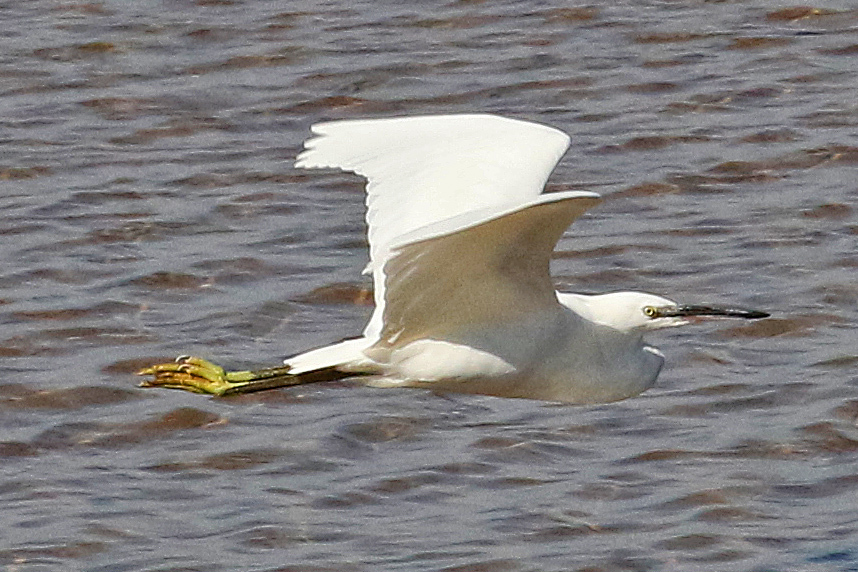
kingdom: Animalia
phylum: Chordata
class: Aves
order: Pelecaniformes
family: Ardeidae
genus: Egretta
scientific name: Egretta garzetta
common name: Little egret
